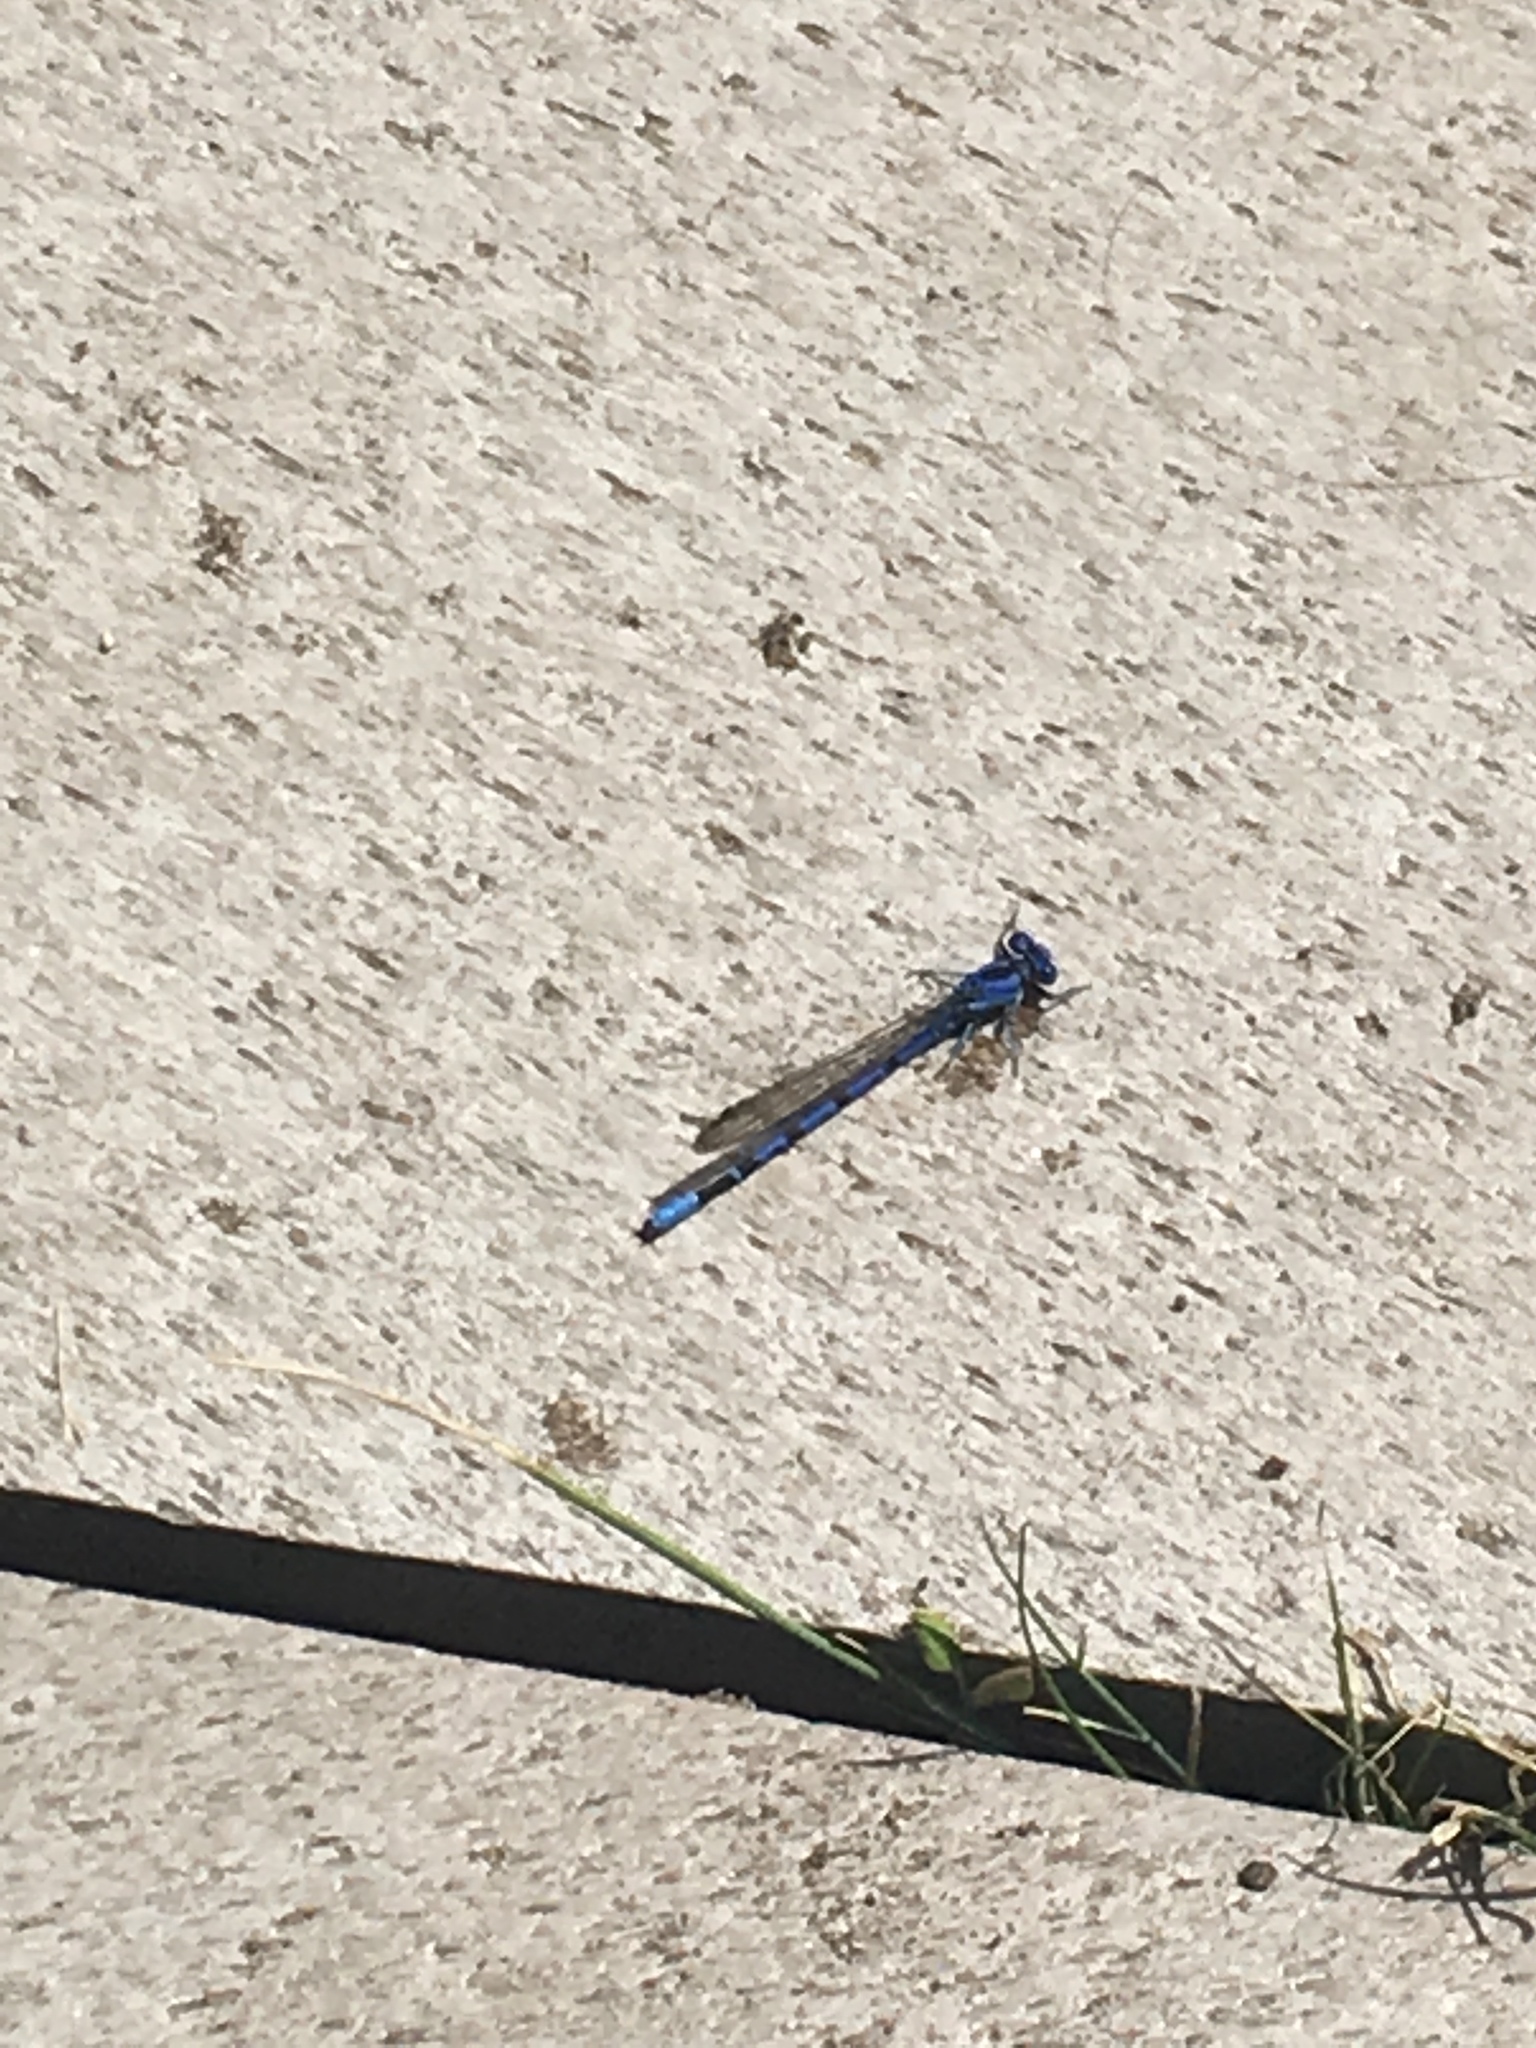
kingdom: Animalia
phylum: Arthropoda
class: Insecta
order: Odonata
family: Coenagrionidae
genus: Argia
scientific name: Argia vivida
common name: Vivid dancer
